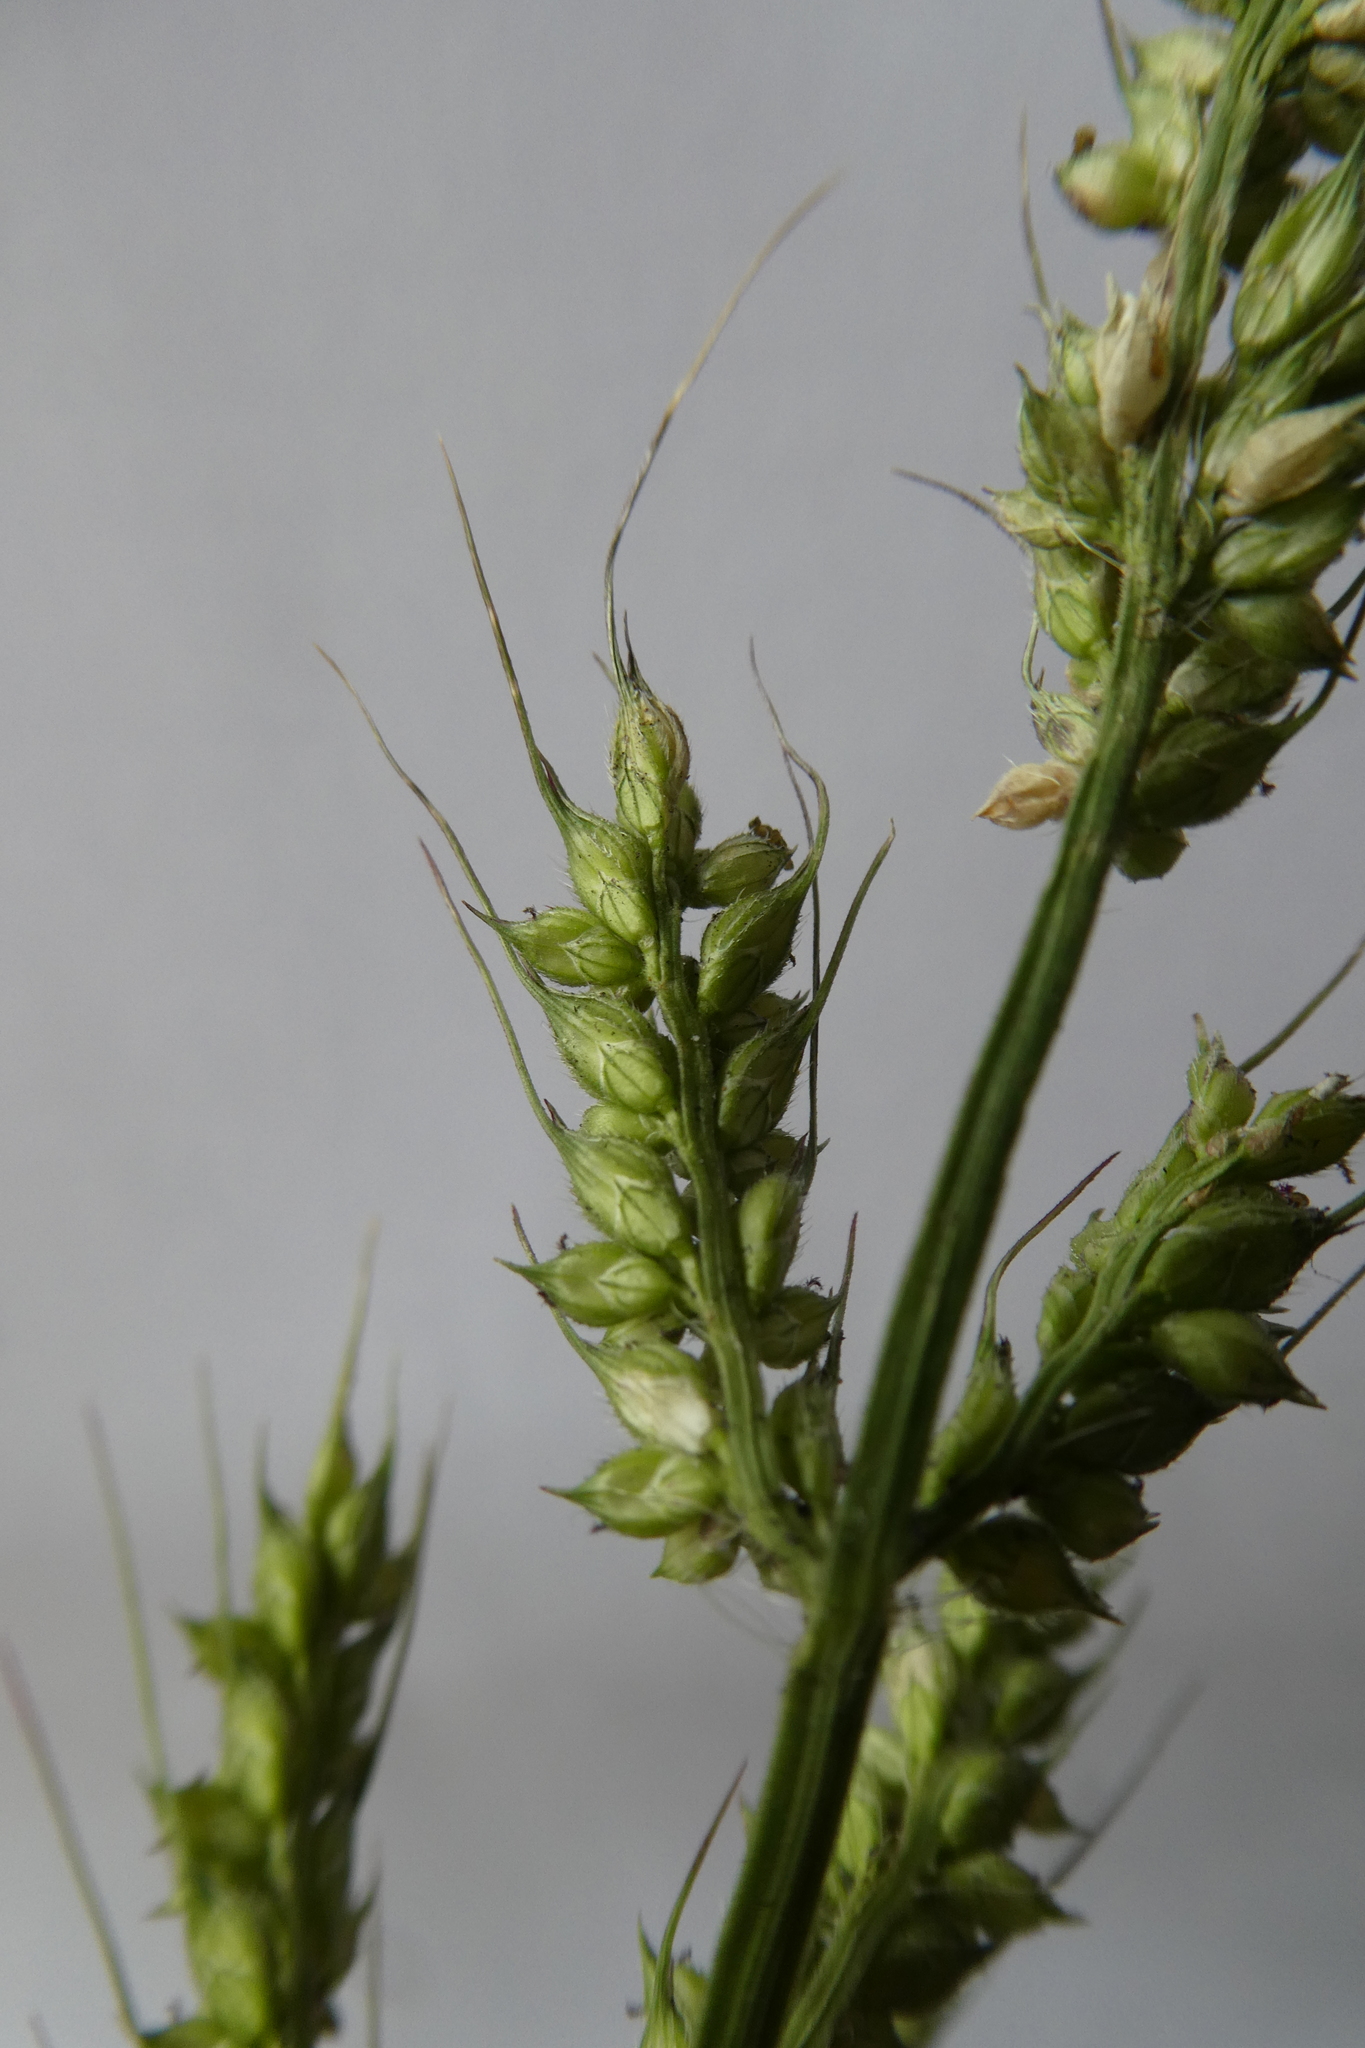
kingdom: Plantae
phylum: Tracheophyta
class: Liliopsida
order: Poales
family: Poaceae
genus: Echinochloa
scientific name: Echinochloa crus-galli
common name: Cockspur
